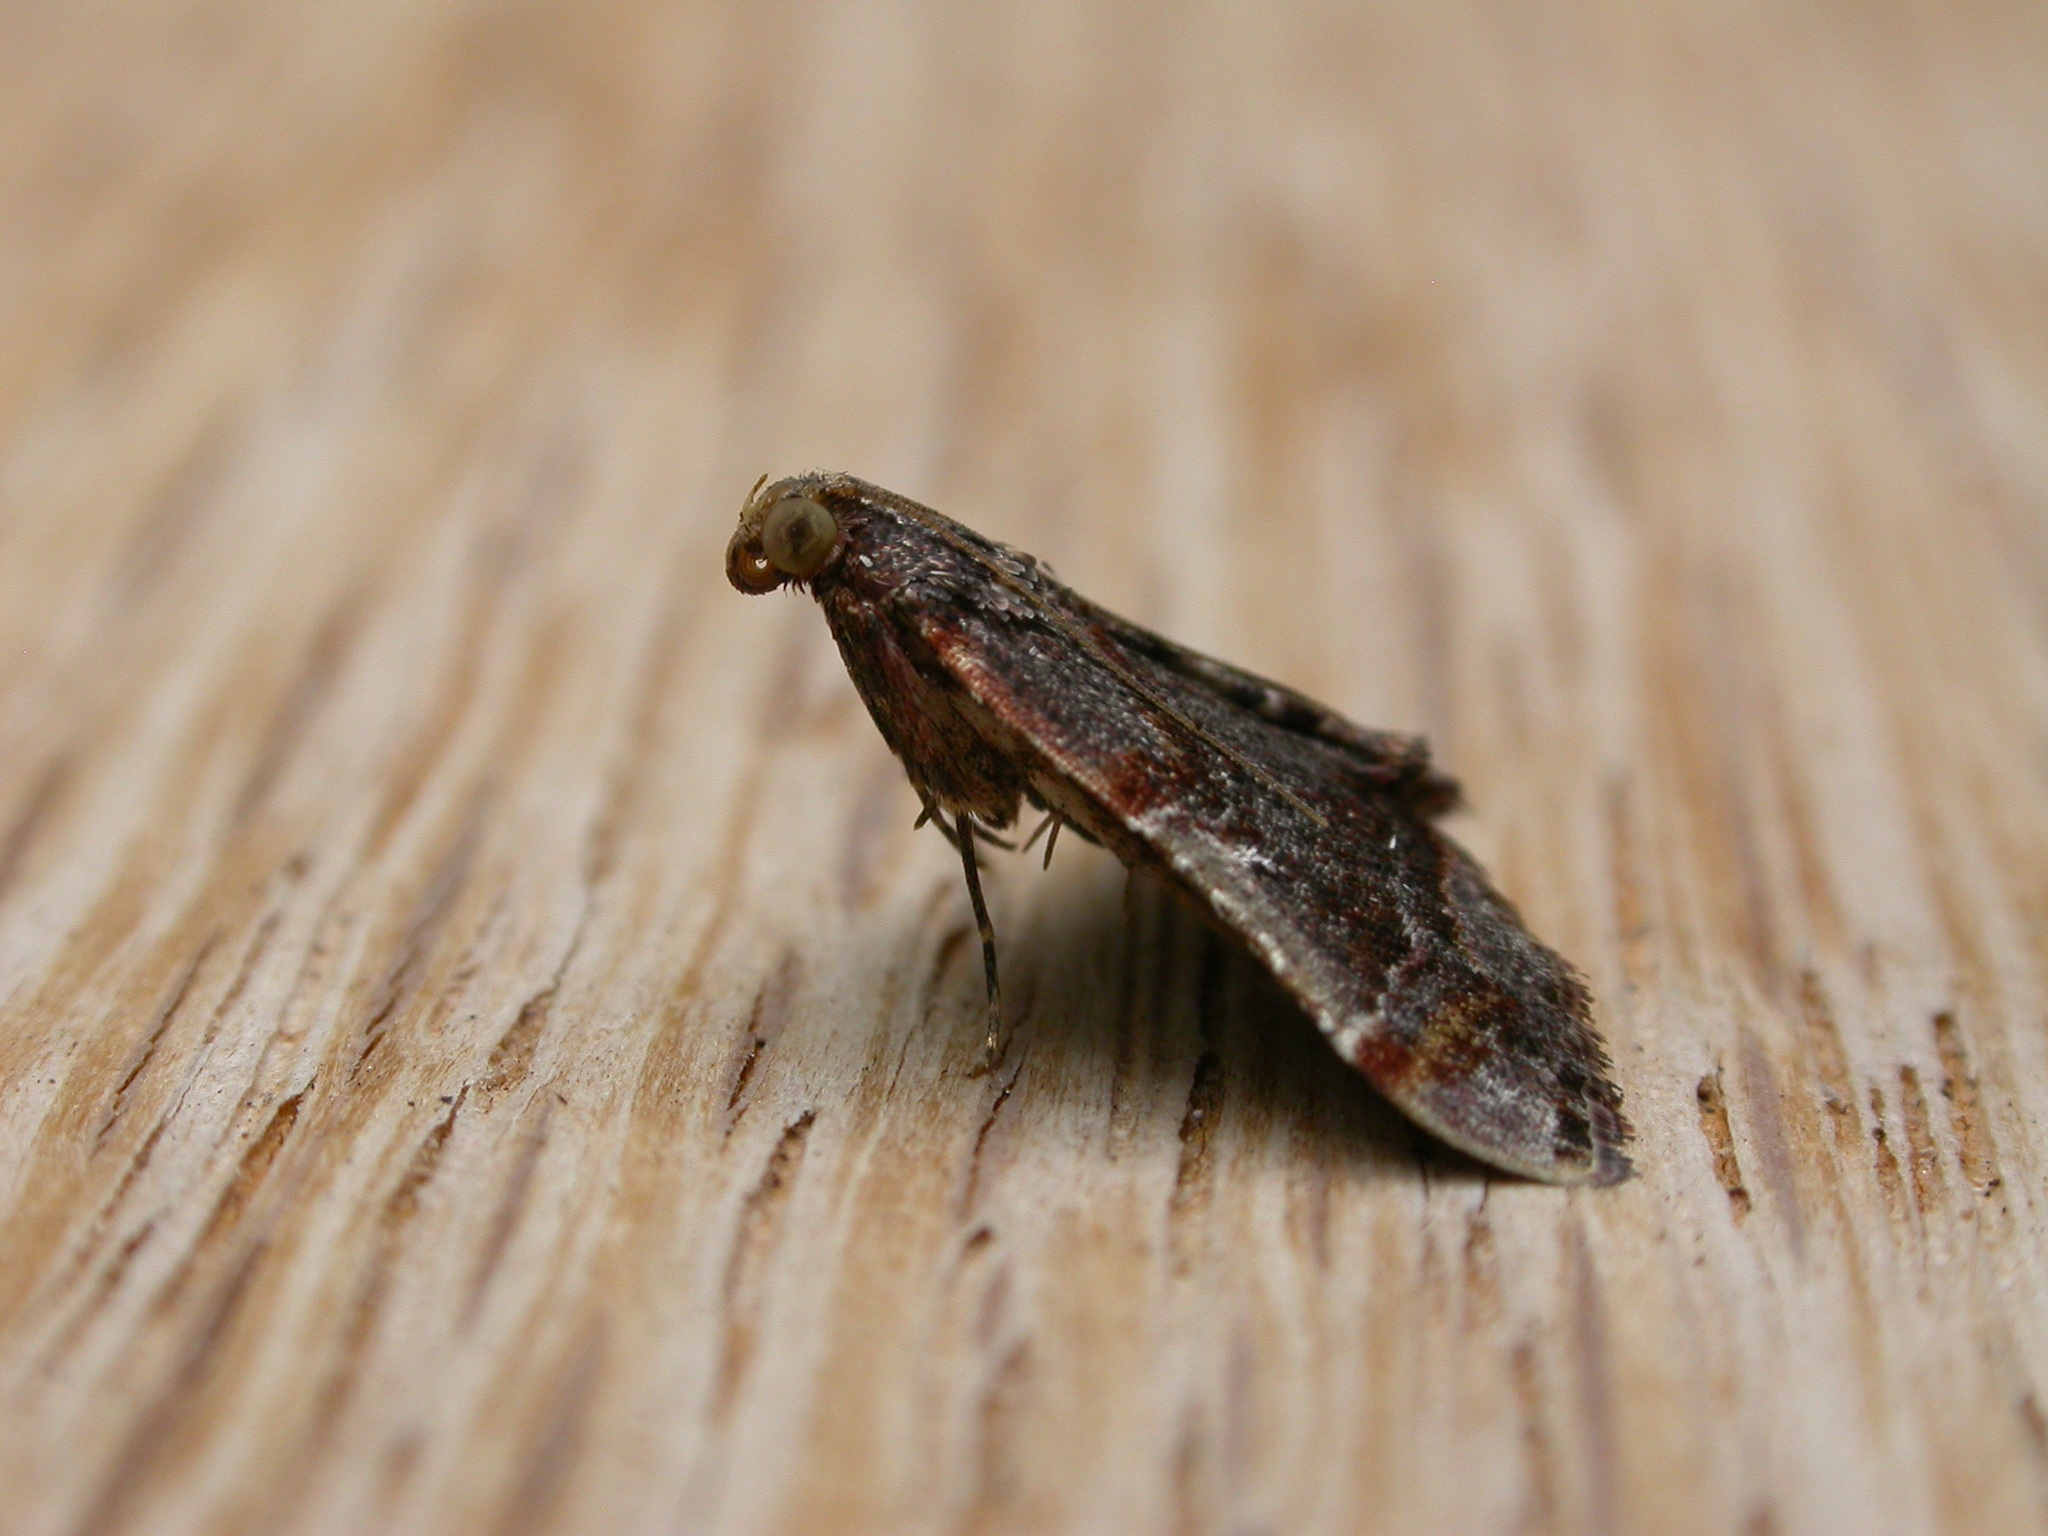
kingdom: Animalia
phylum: Arthropoda
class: Insecta
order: Lepidoptera
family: Pyralidae
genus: Scenedra
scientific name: Scenedra decoratalis
